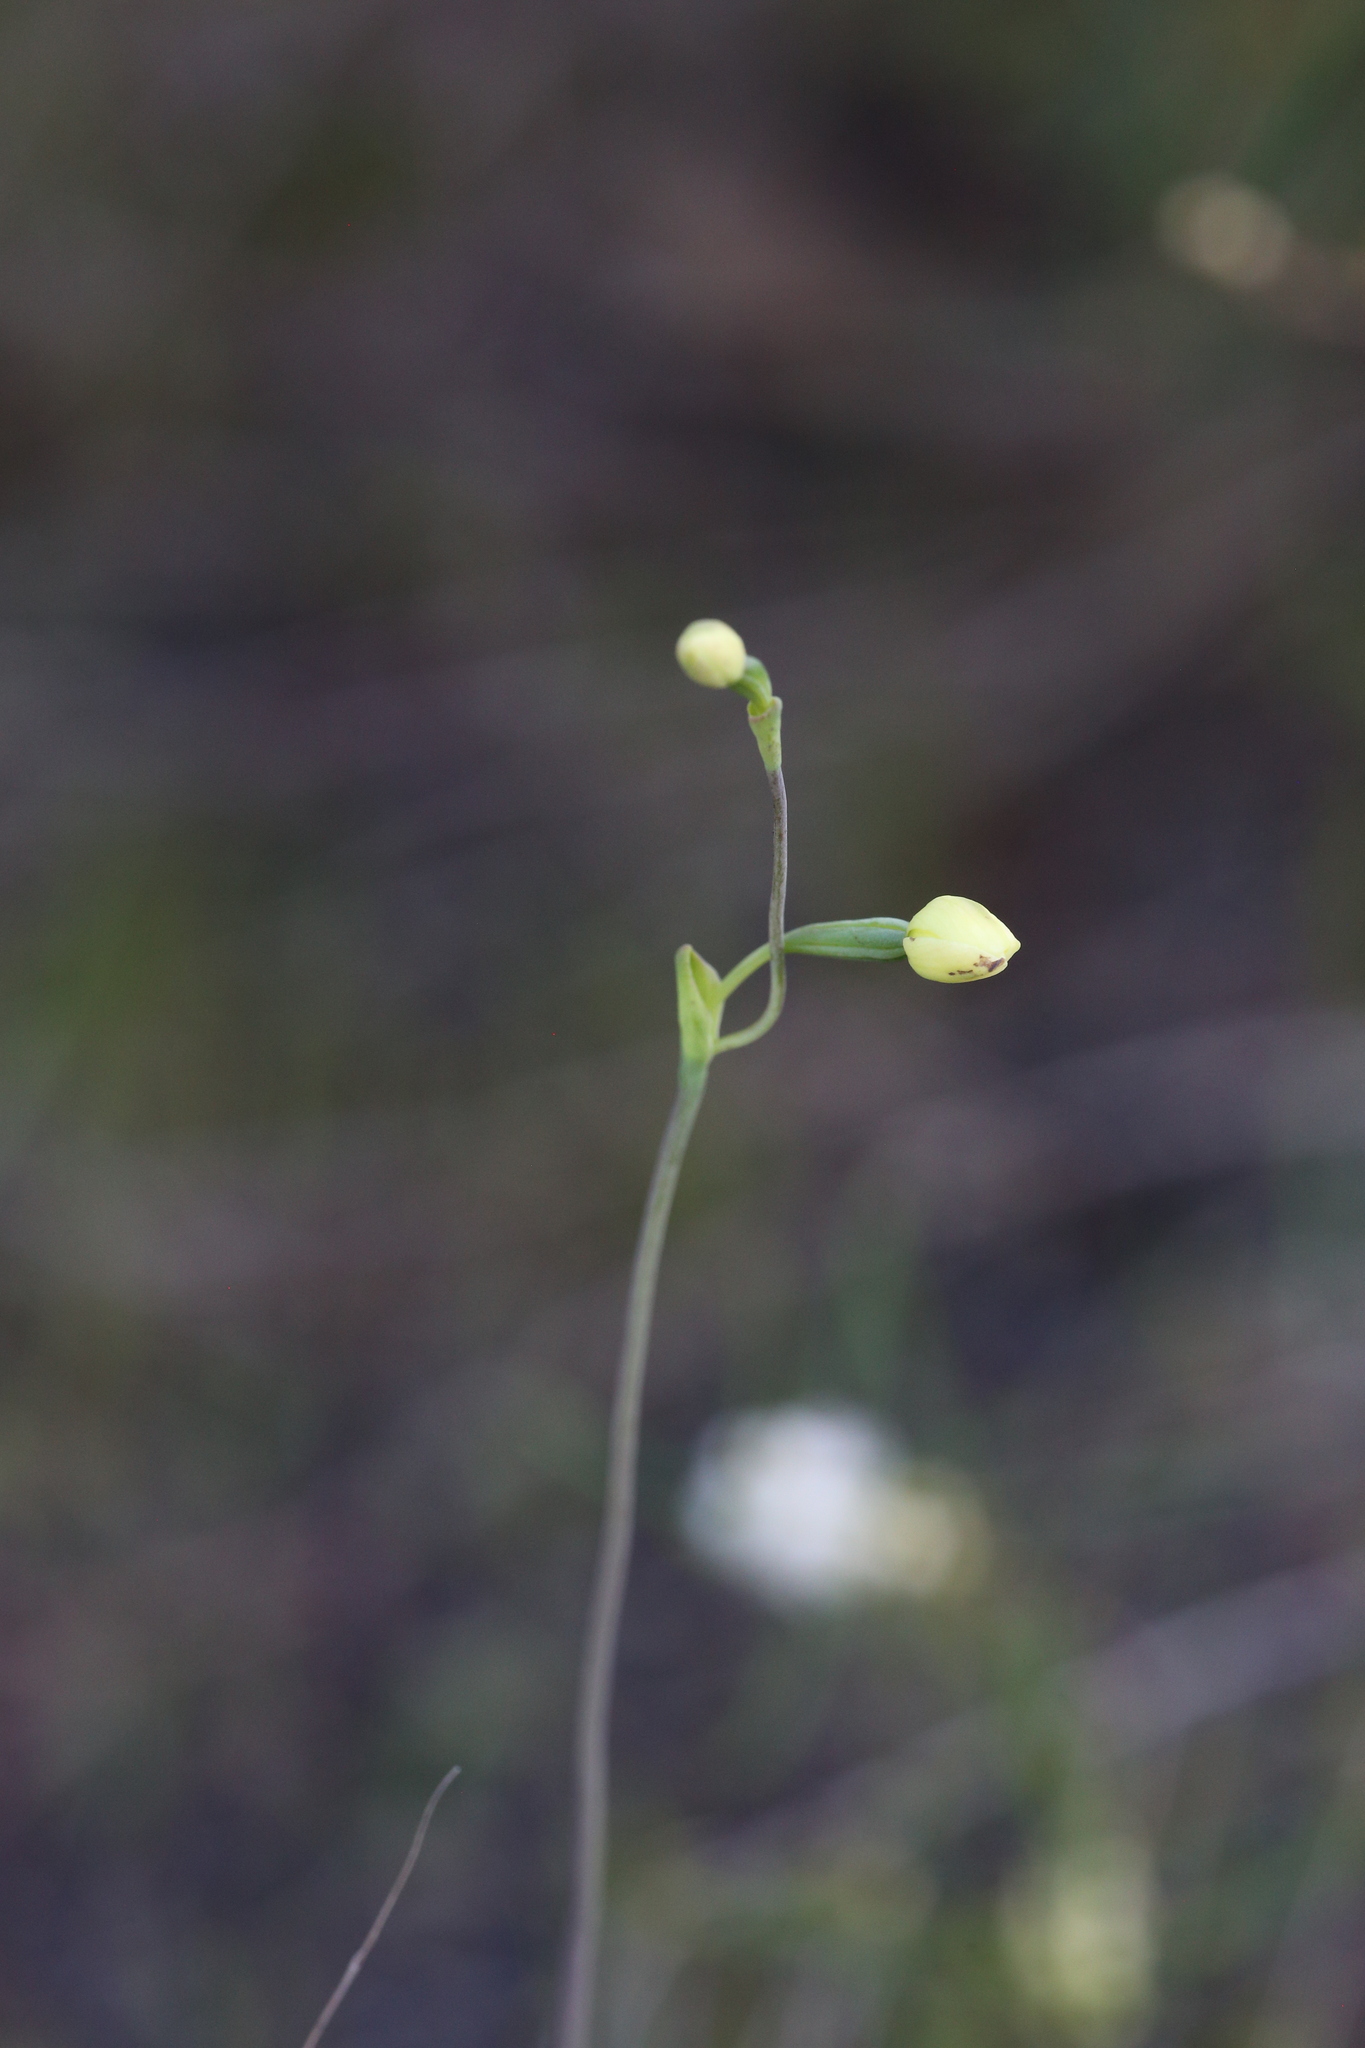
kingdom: Plantae
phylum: Tracheophyta
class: Liliopsida
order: Asparagales
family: Orchidaceae
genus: Thelymitra
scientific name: Thelymitra flexuosa
